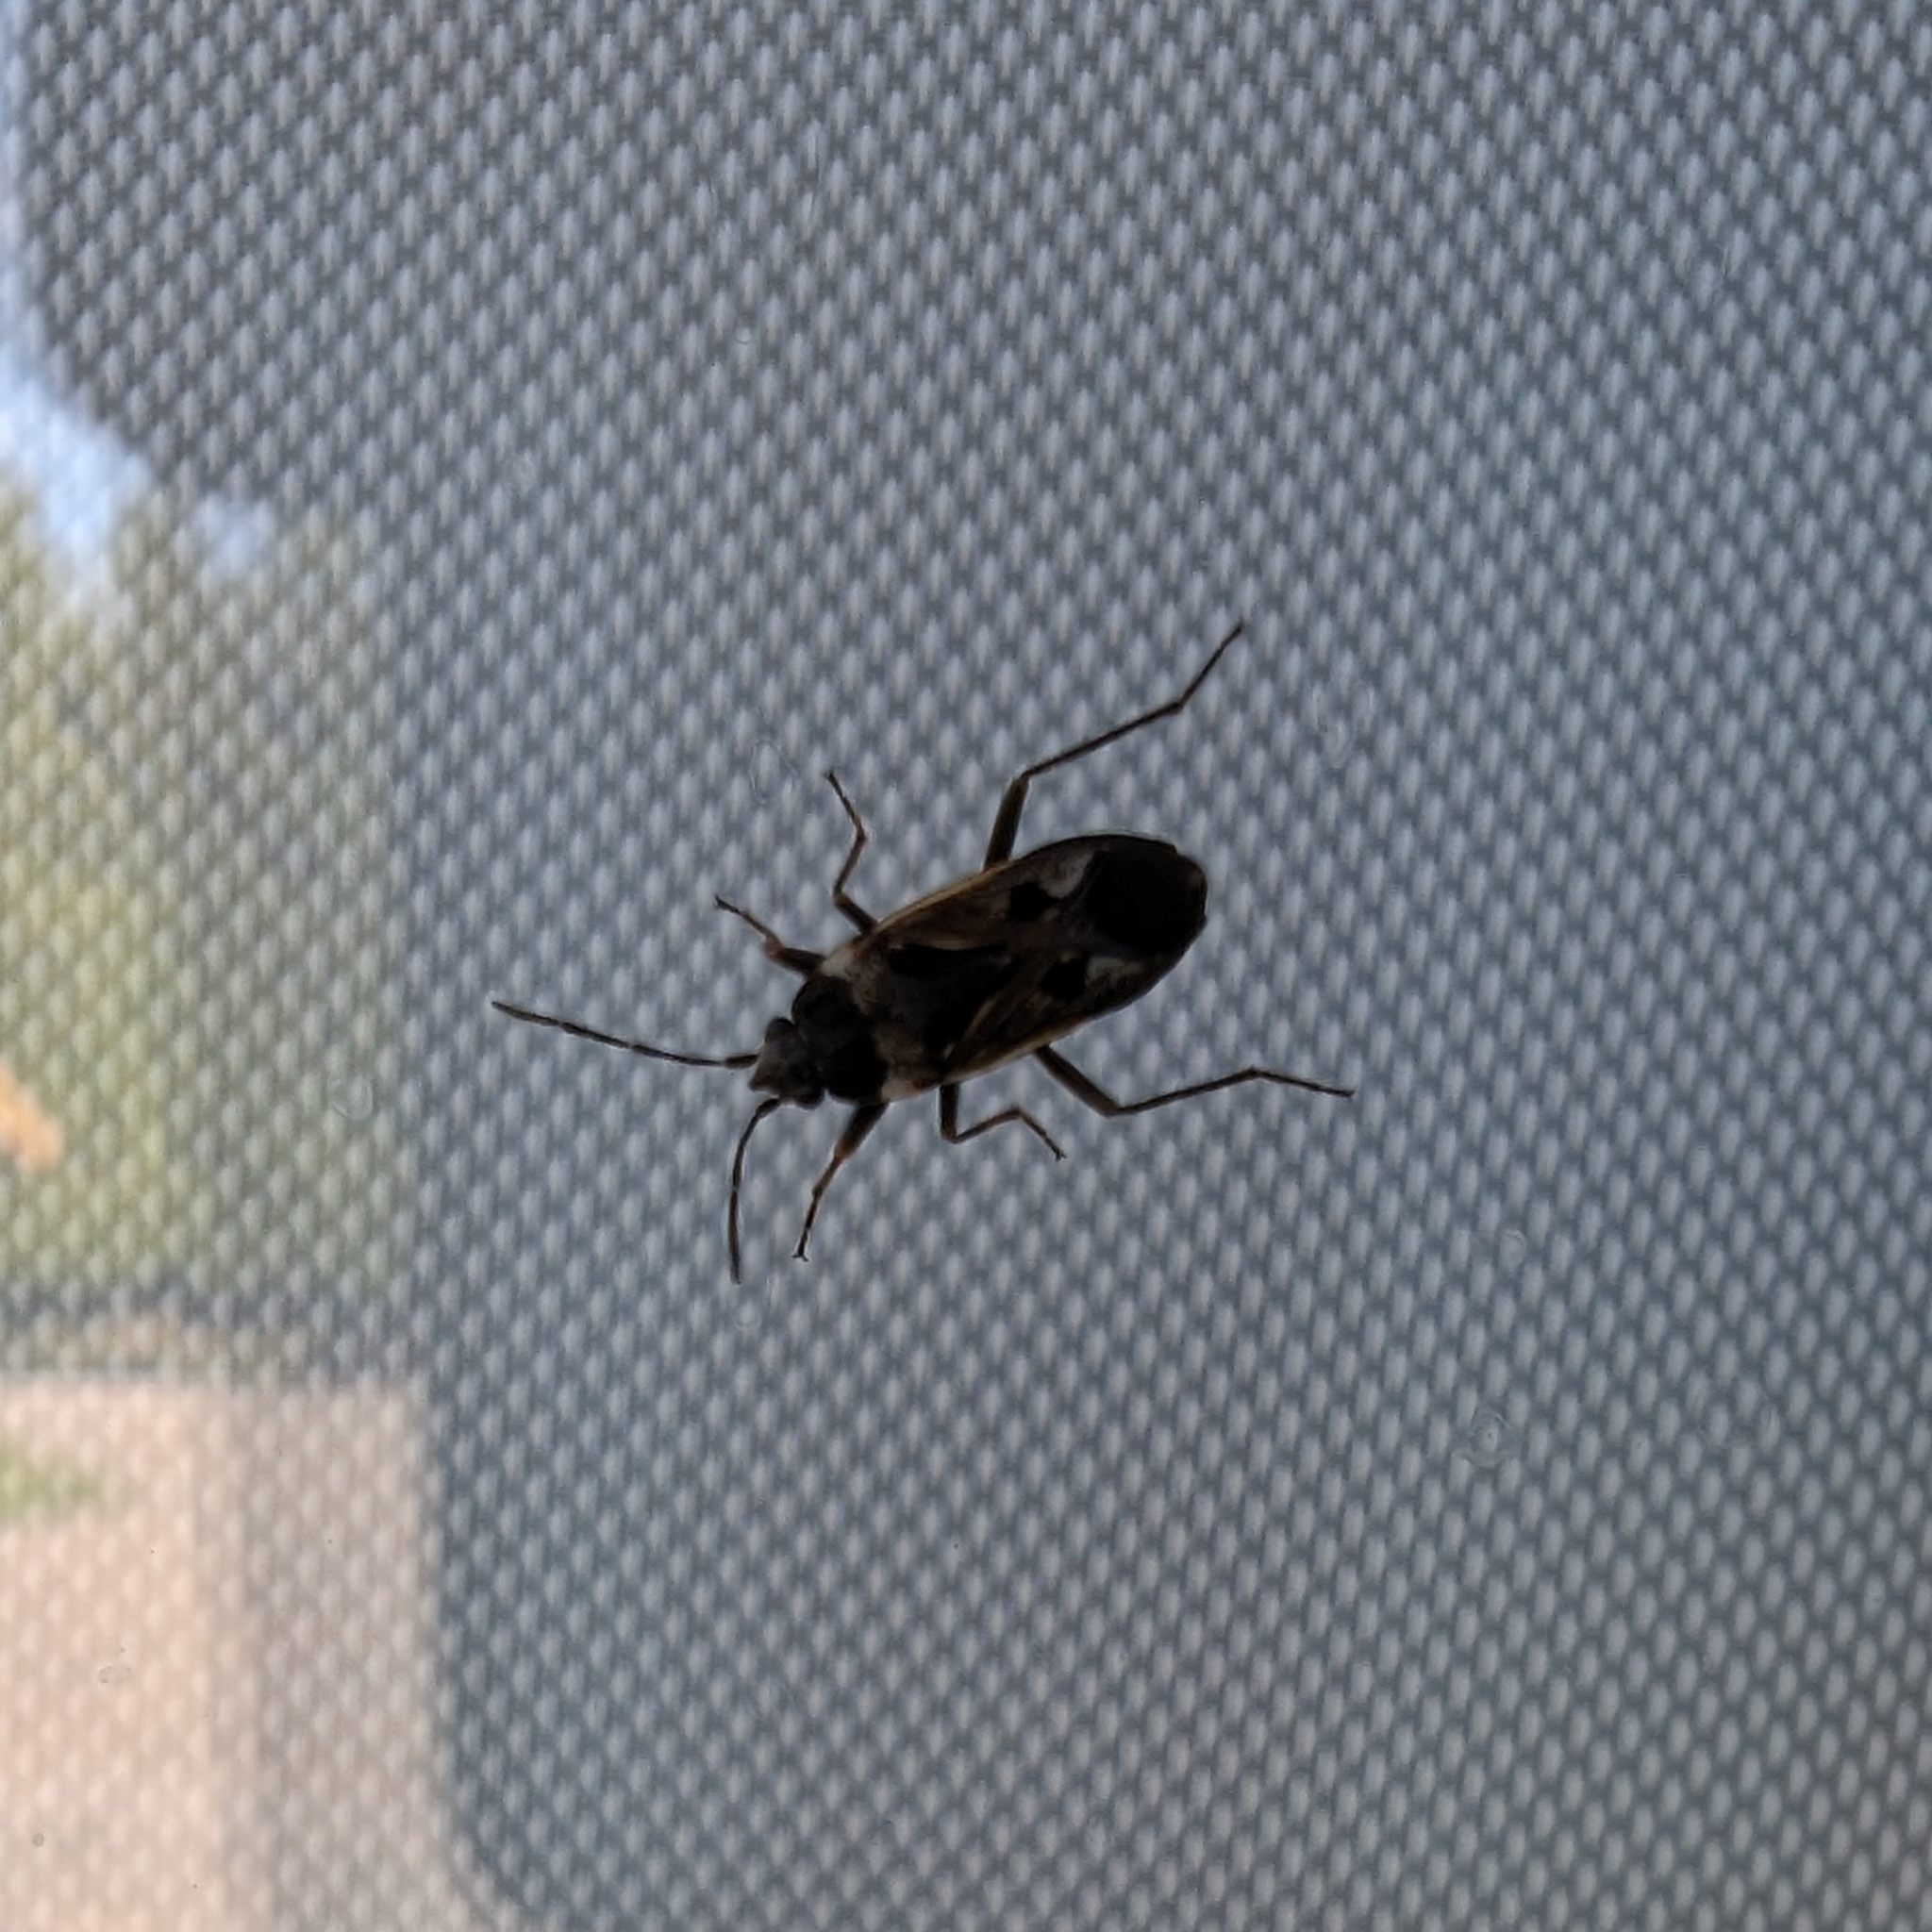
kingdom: Animalia
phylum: Arthropoda
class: Insecta
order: Hemiptera
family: Rhyparochromidae
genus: Rhyparochromus
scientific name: Rhyparochromus vulgaris
